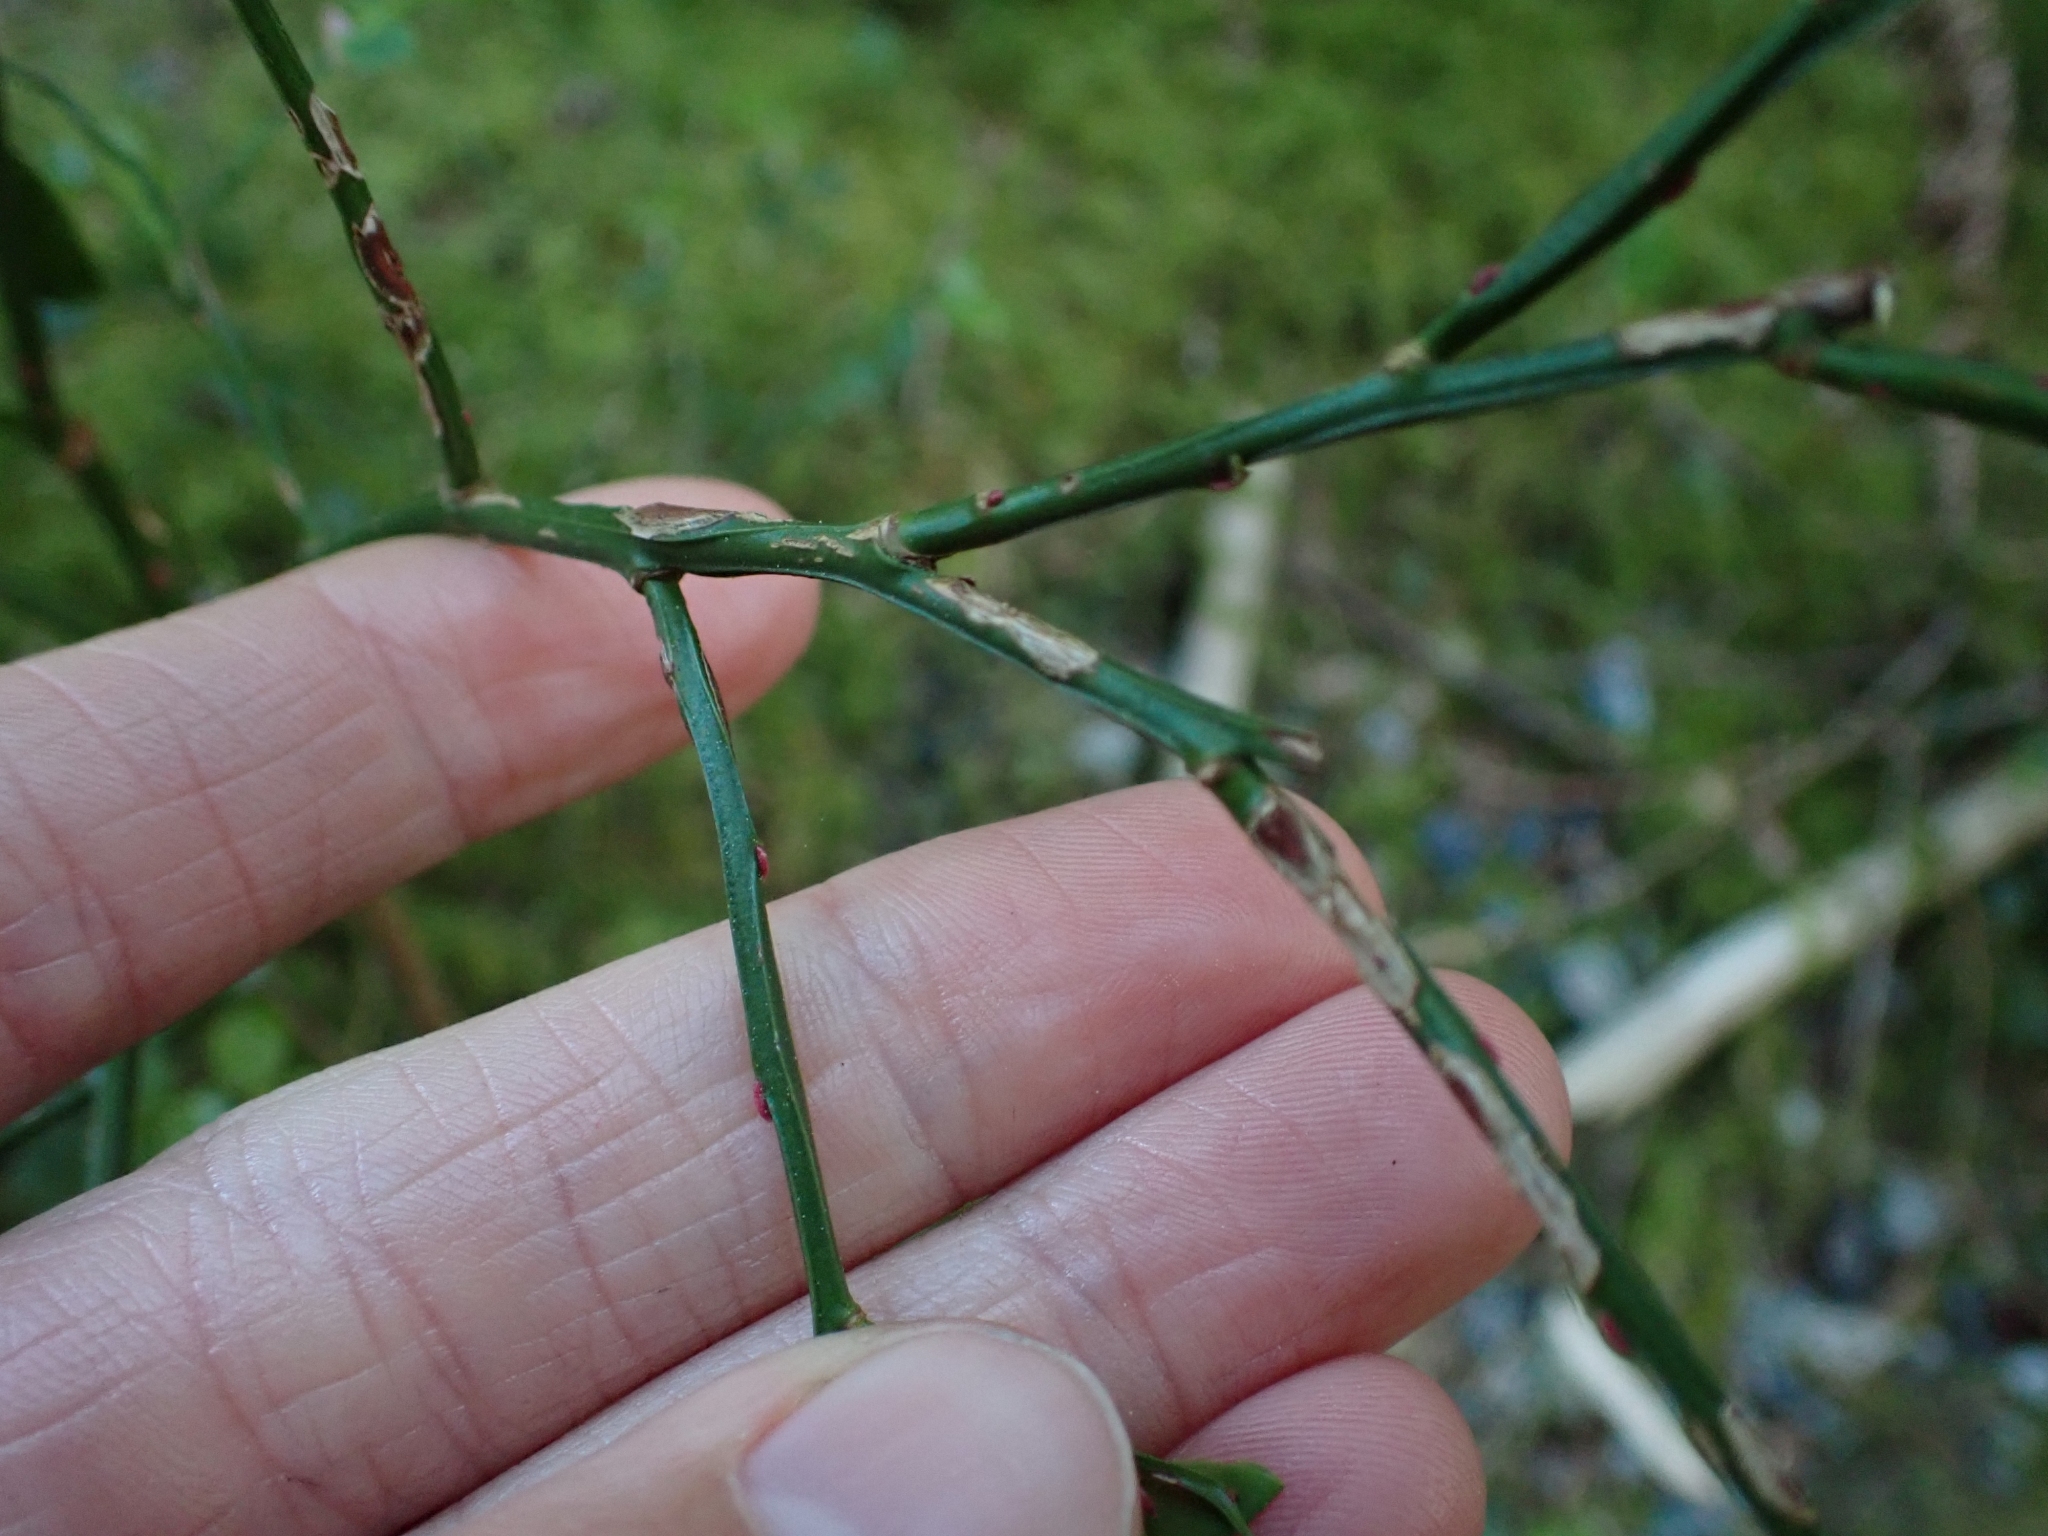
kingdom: Plantae
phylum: Tracheophyta
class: Magnoliopsida
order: Ericales
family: Ericaceae
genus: Vaccinium
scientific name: Vaccinium parvifolium
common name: Red-huckleberry
